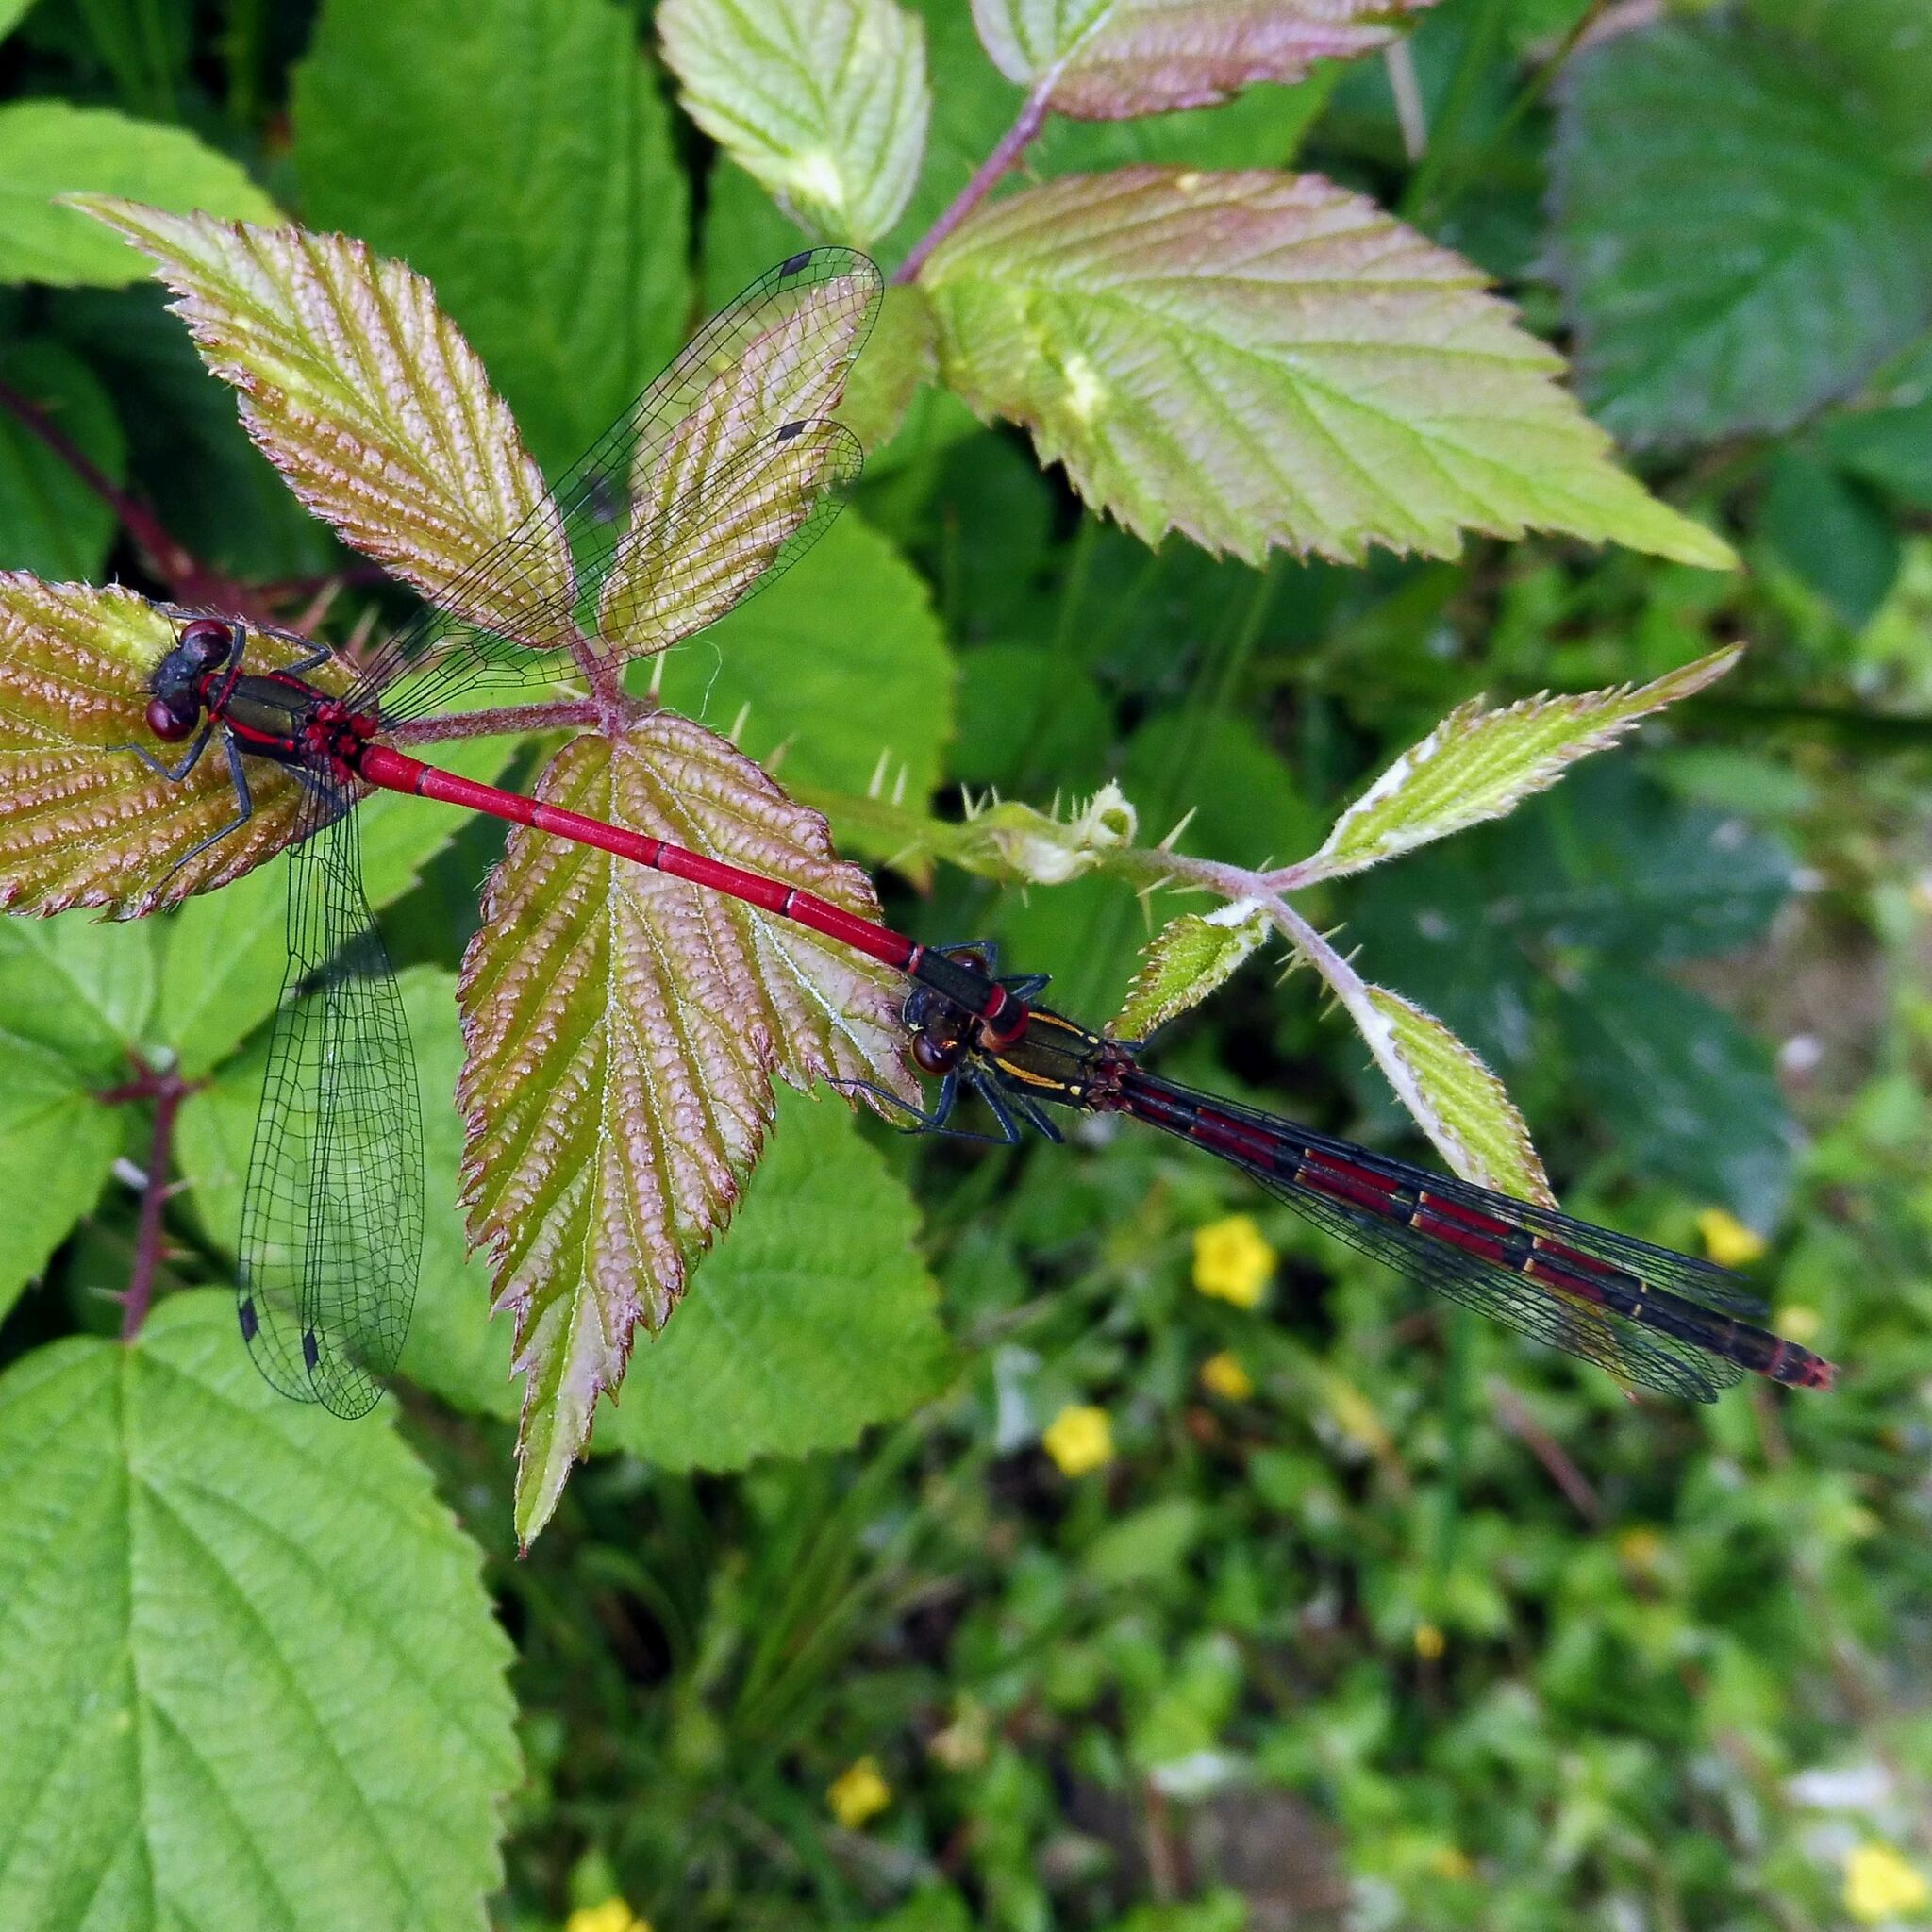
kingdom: Animalia
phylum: Arthropoda
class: Insecta
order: Odonata
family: Coenagrionidae
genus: Pyrrhosoma
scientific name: Pyrrhosoma nymphula
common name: Large red damsel
